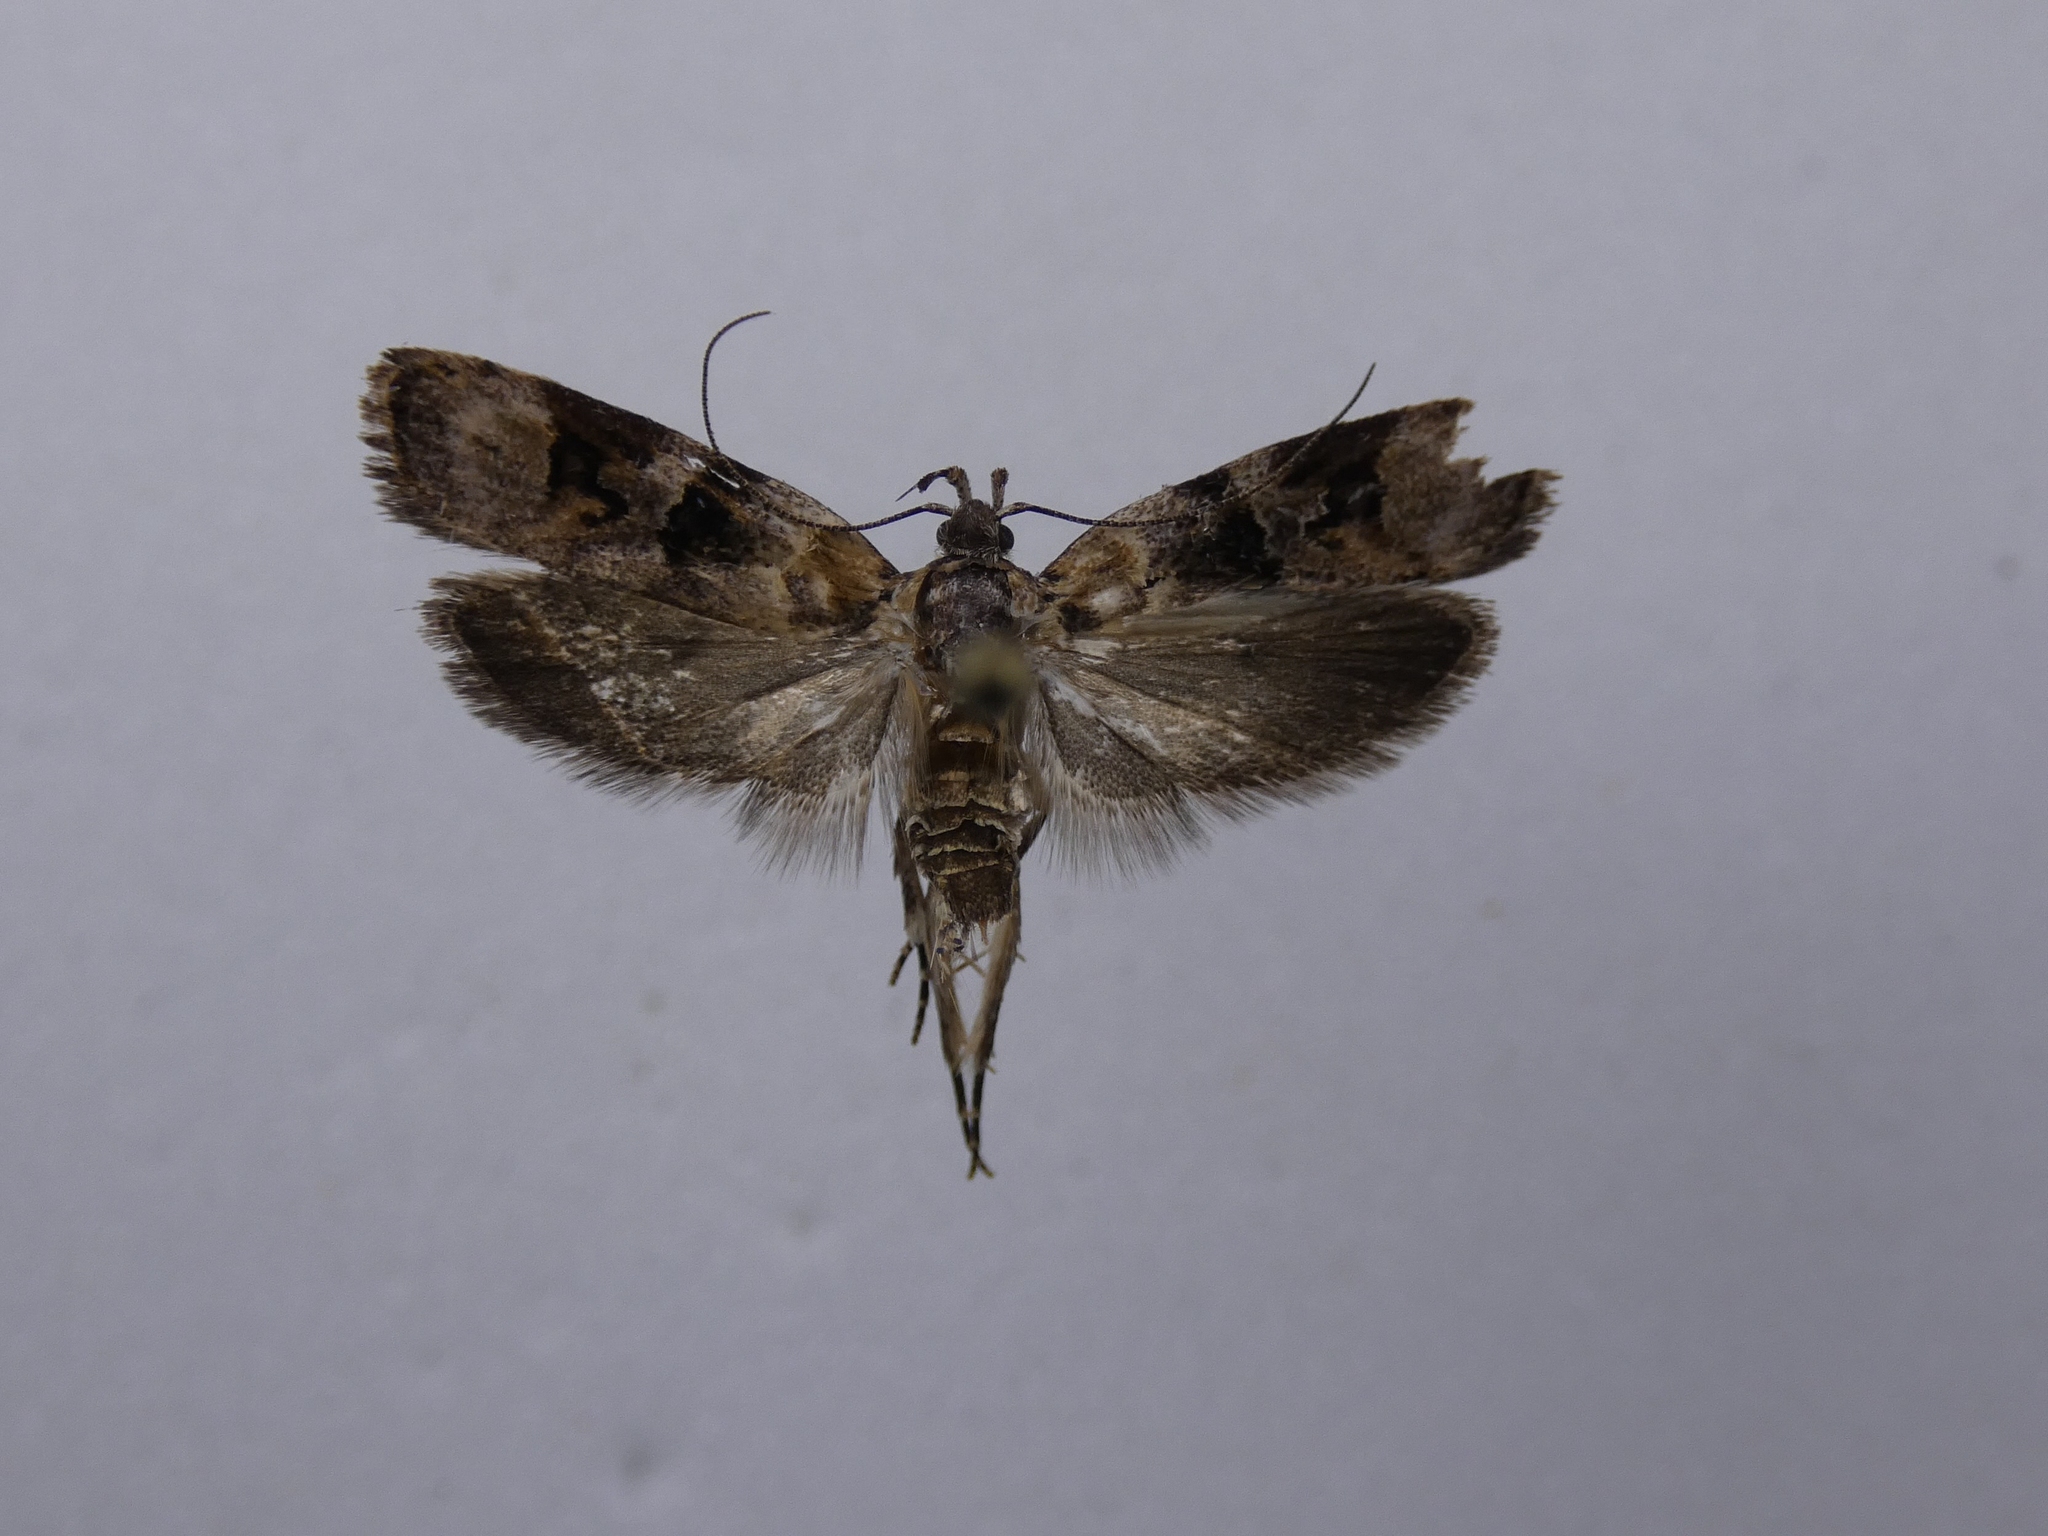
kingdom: Animalia
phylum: Arthropoda
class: Insecta
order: Lepidoptera
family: Oecophoridae
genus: Izatha
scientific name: Izatha metadelta
